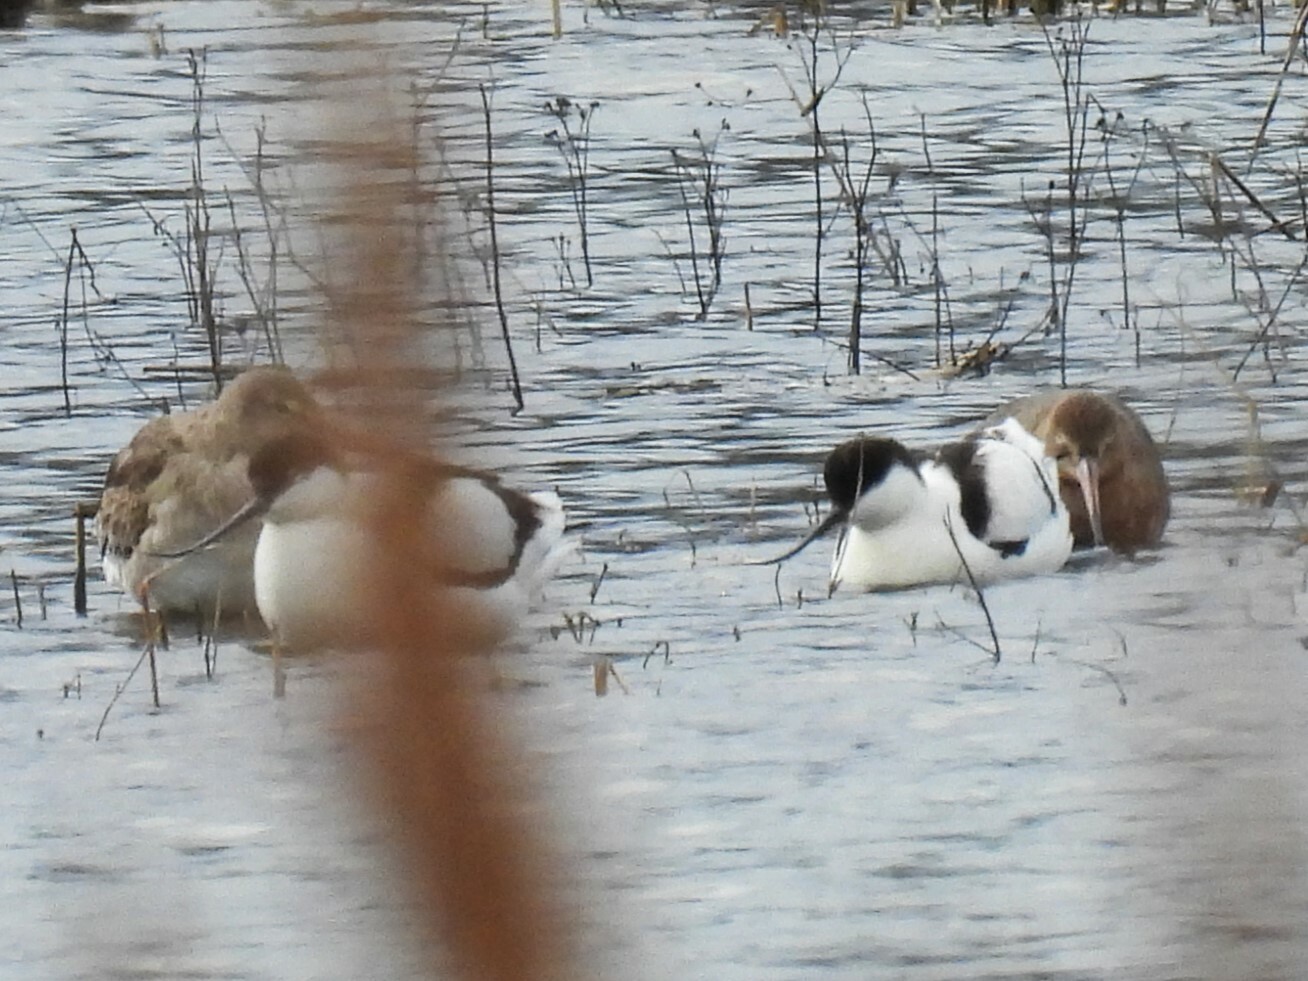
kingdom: Animalia
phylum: Chordata
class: Aves
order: Charadriiformes
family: Recurvirostridae
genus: Recurvirostra
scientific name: Recurvirostra avosetta
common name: Pied avocet
